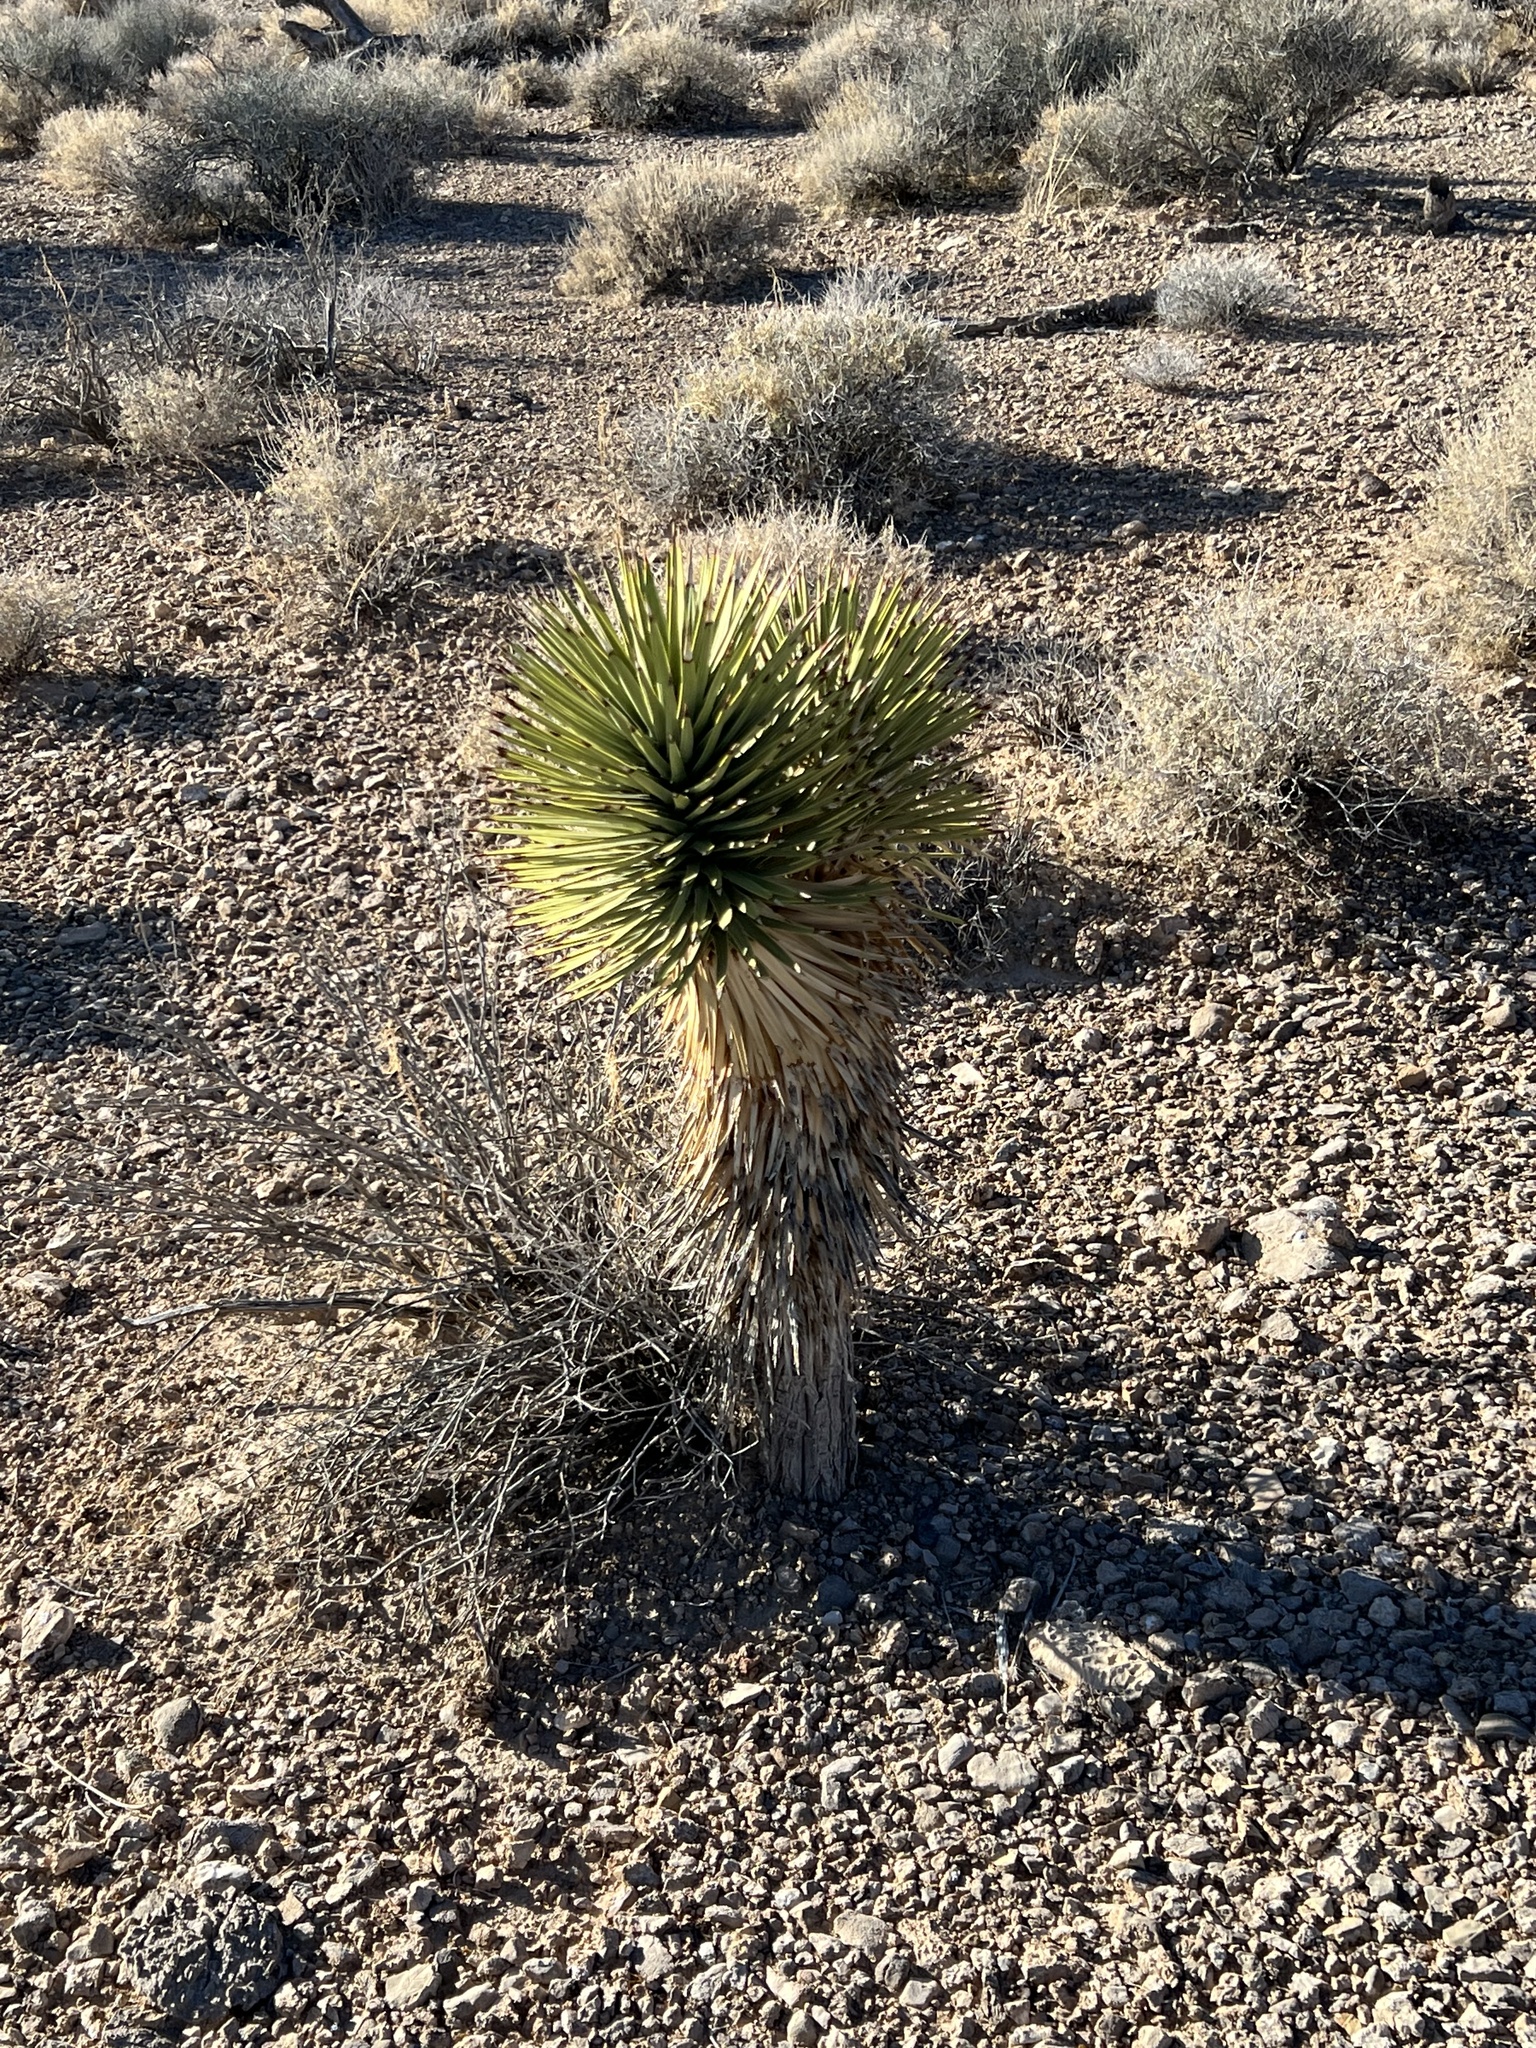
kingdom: Plantae
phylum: Tracheophyta
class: Liliopsida
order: Asparagales
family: Asparagaceae
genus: Yucca
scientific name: Yucca brevifolia
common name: Joshua tree
